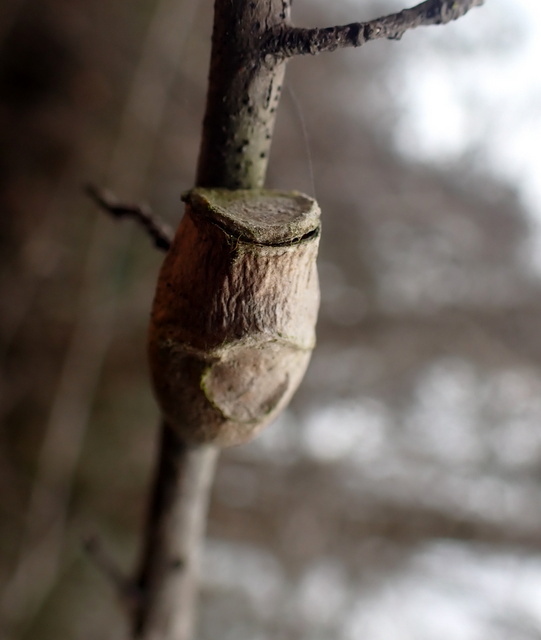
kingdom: Animalia
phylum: Arthropoda
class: Insecta
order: Lepidoptera
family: Megalopygidae
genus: Megalopyge
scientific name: Megalopyge
